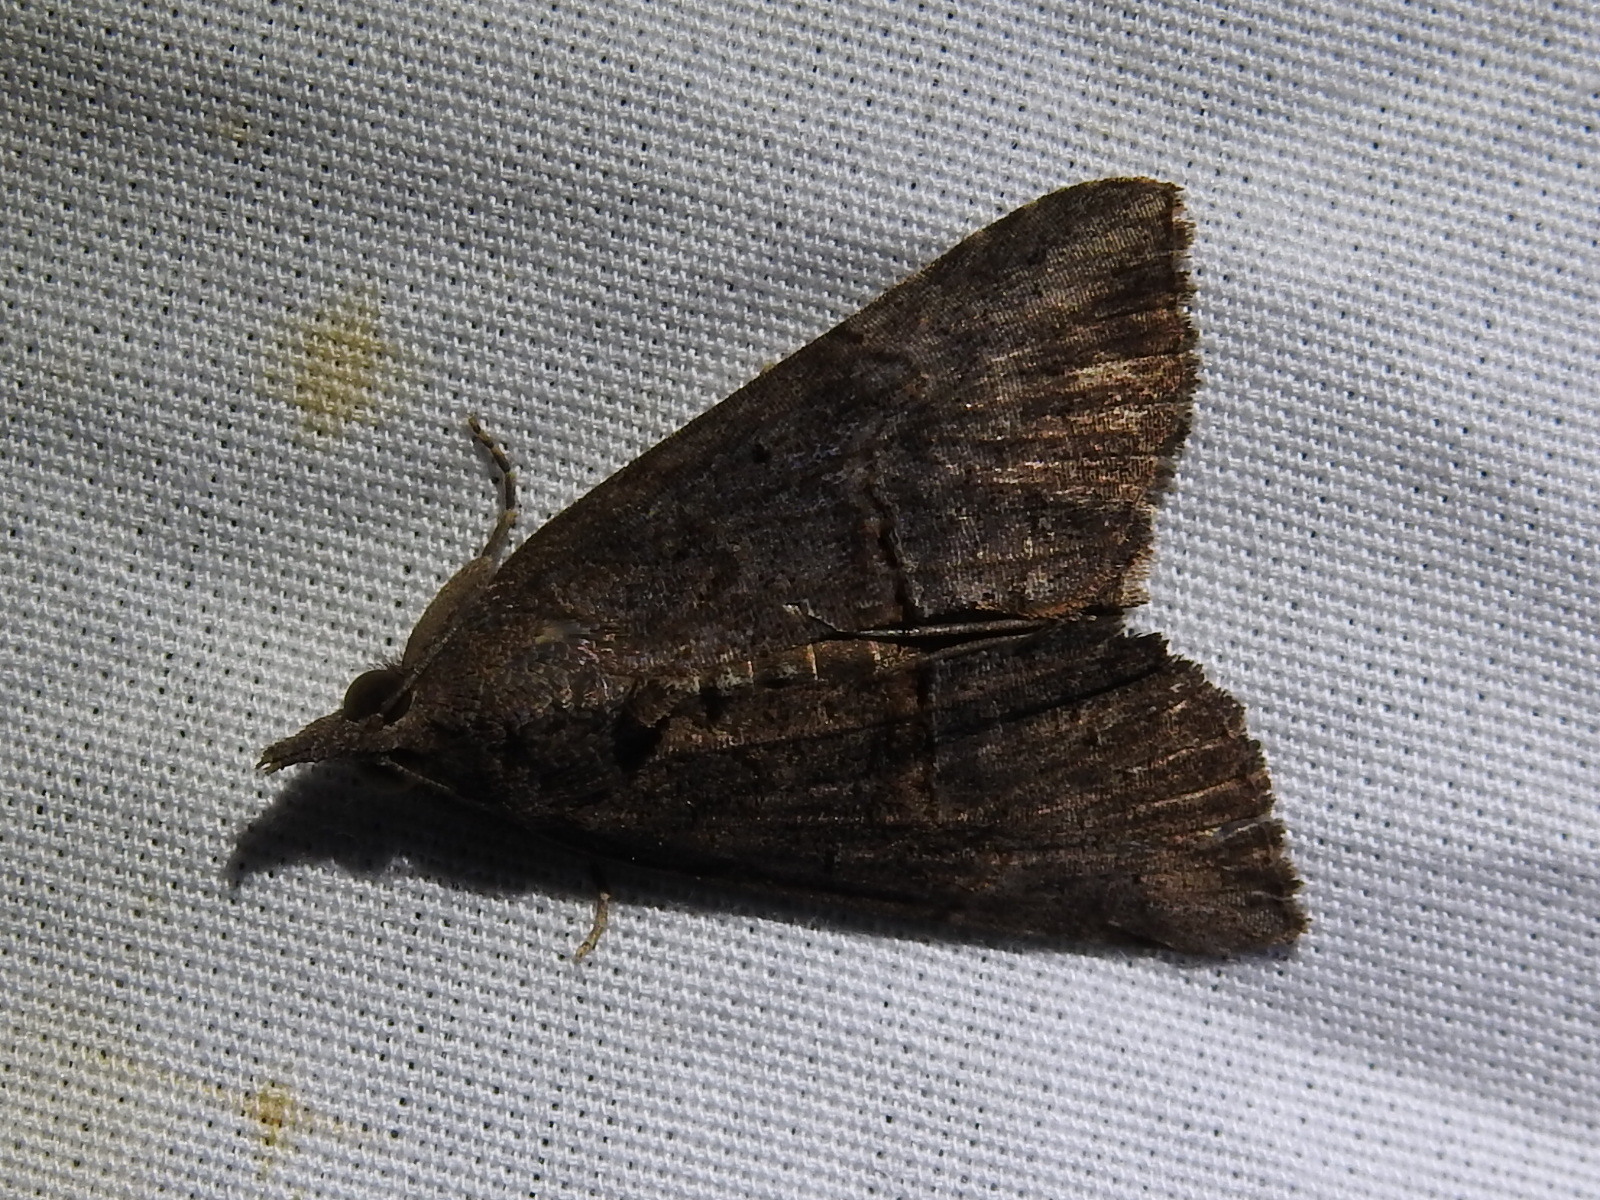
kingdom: Animalia
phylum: Arthropoda
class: Insecta
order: Lepidoptera
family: Erebidae
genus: Hypena
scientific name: Hypena scabra
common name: Green cloverworm
